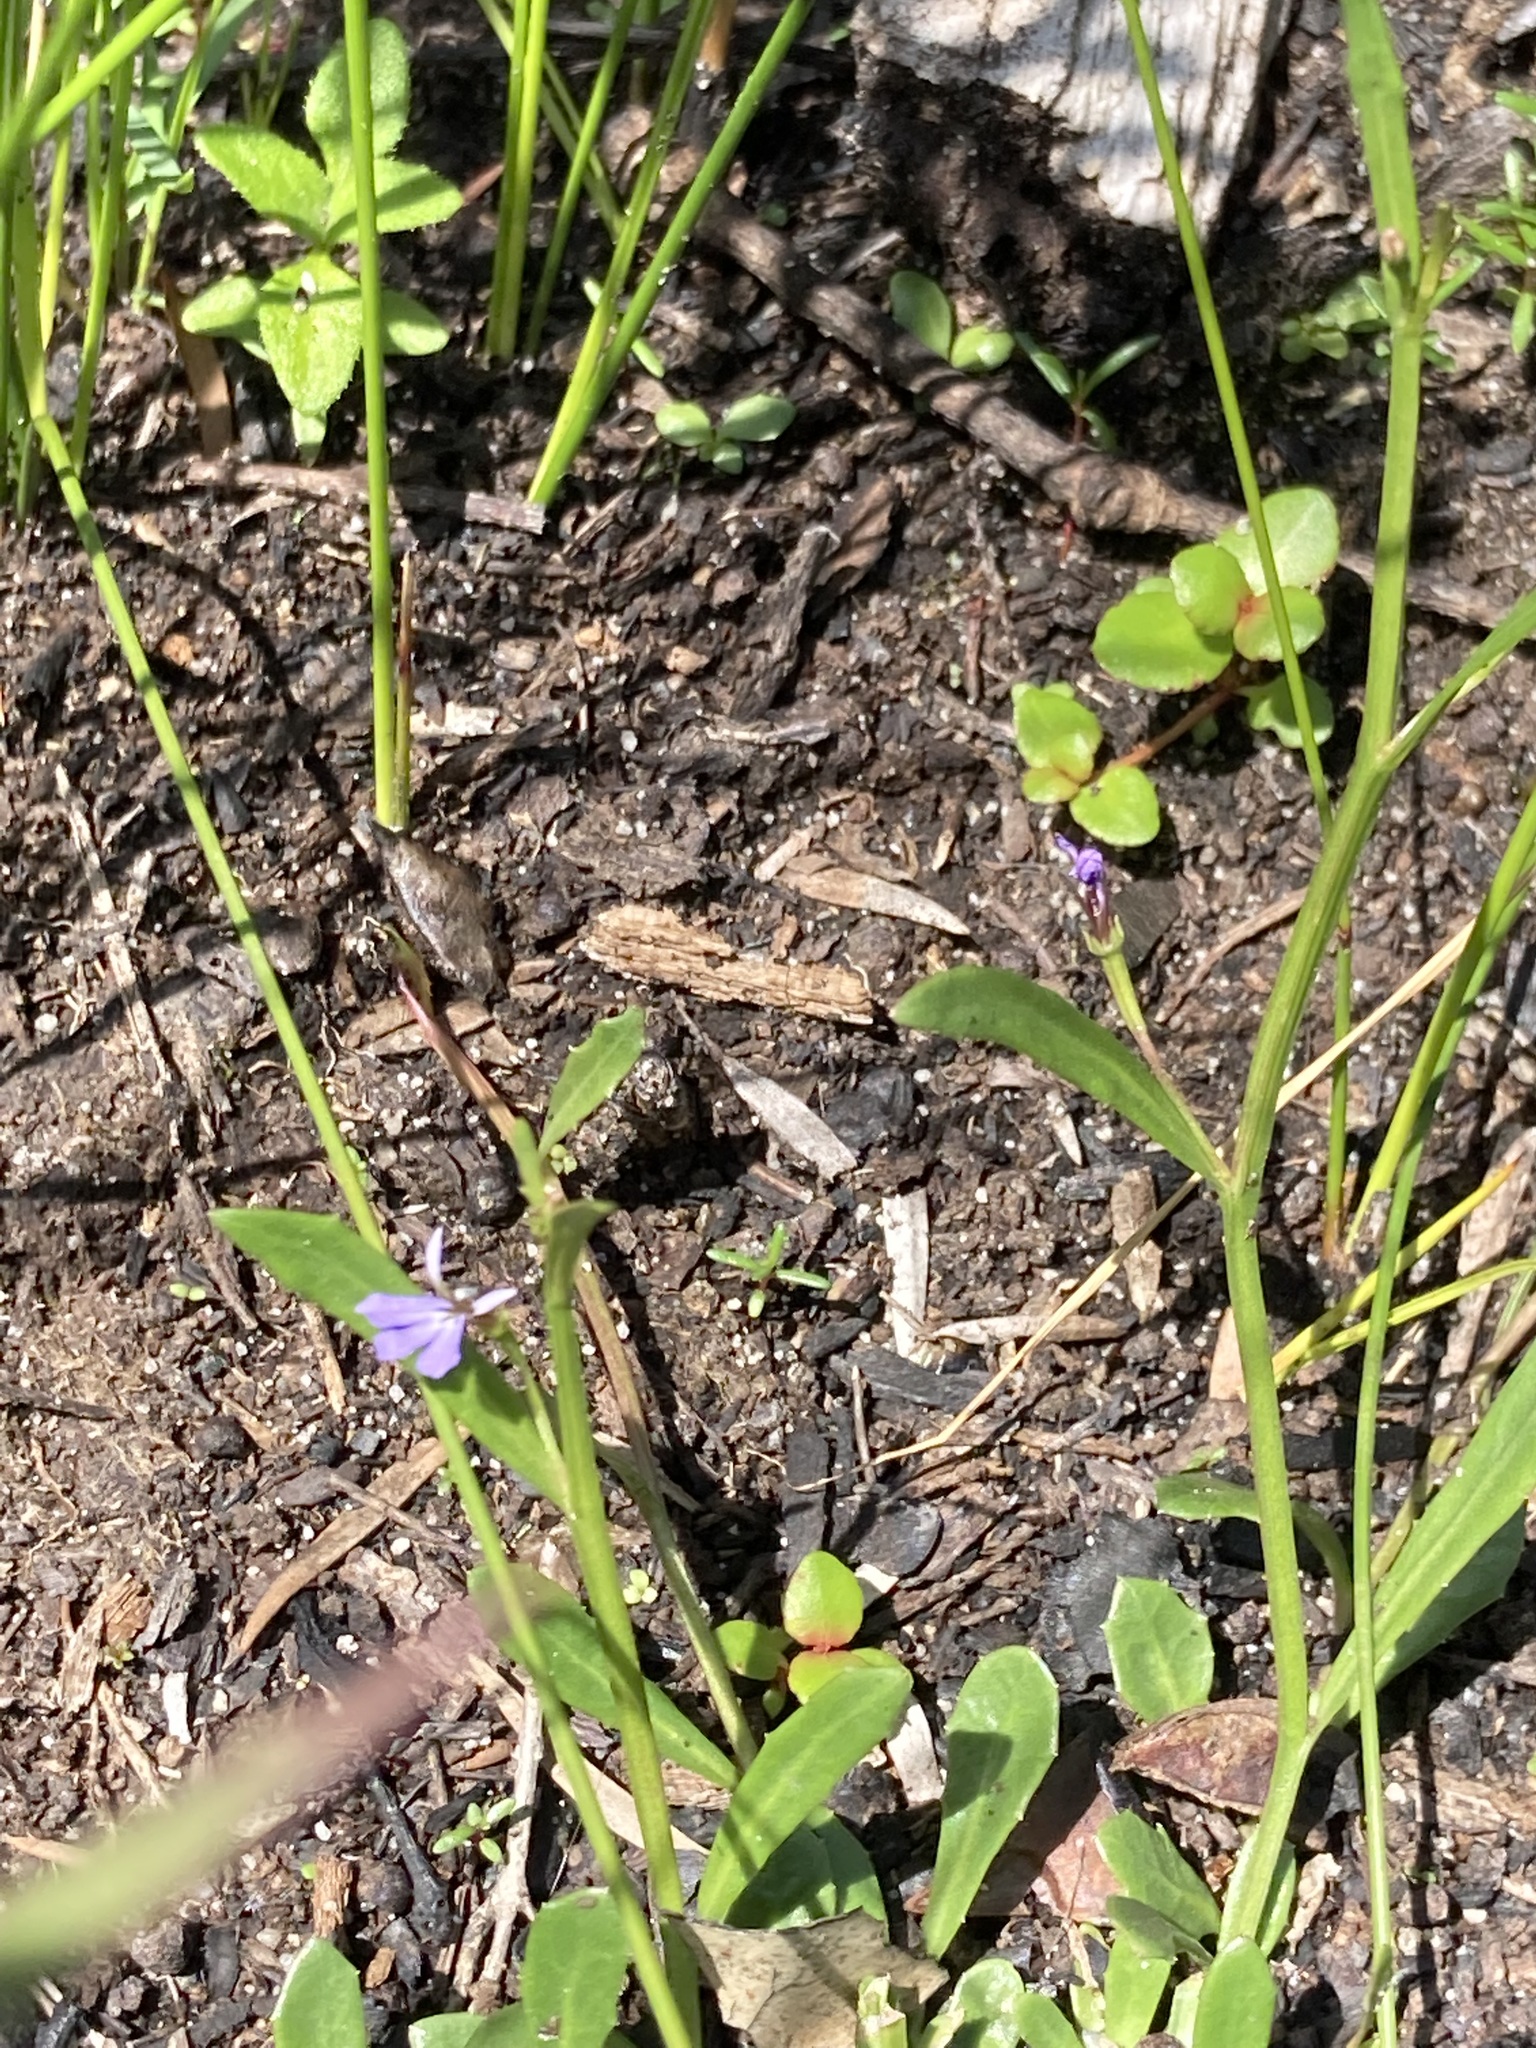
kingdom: Plantae
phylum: Tracheophyta
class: Magnoliopsida
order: Asterales
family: Campanulaceae
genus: Lobelia
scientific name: Lobelia anceps
